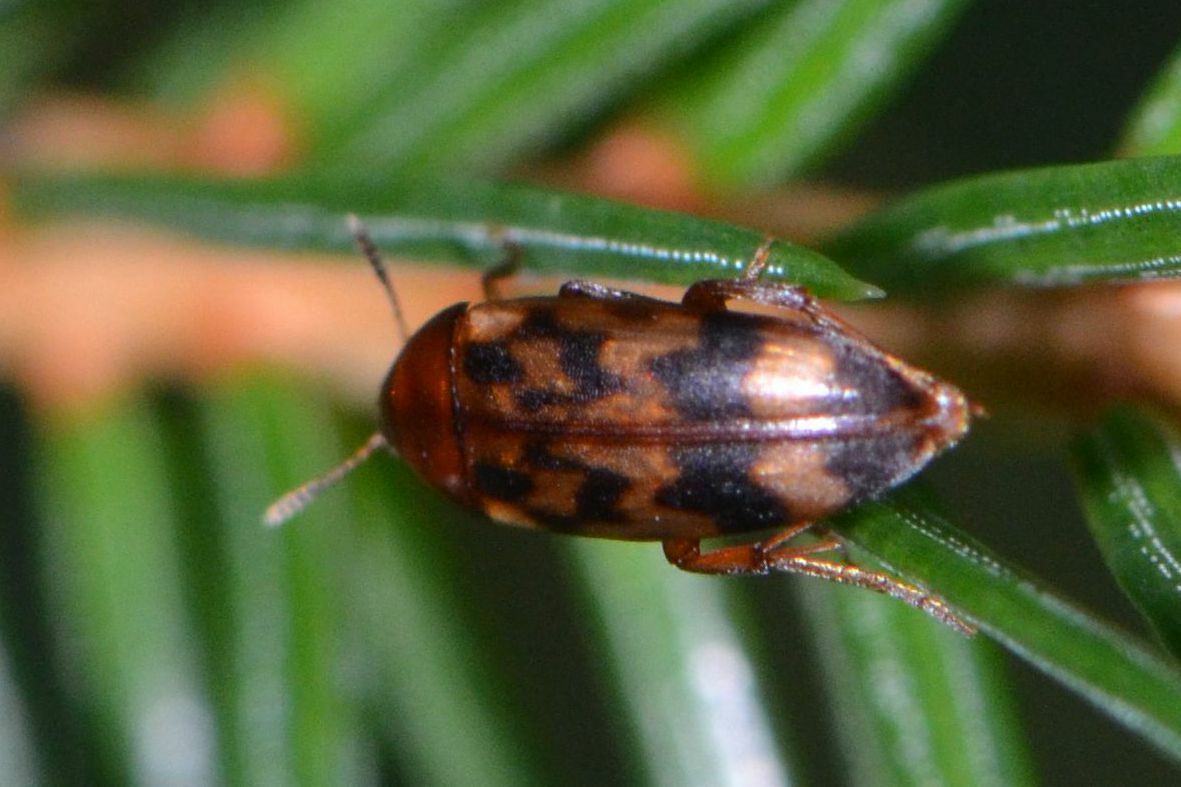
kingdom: Animalia
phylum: Arthropoda
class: Insecta
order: Coleoptera
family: Melandryidae
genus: Orchesia
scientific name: Orchesia undulata
